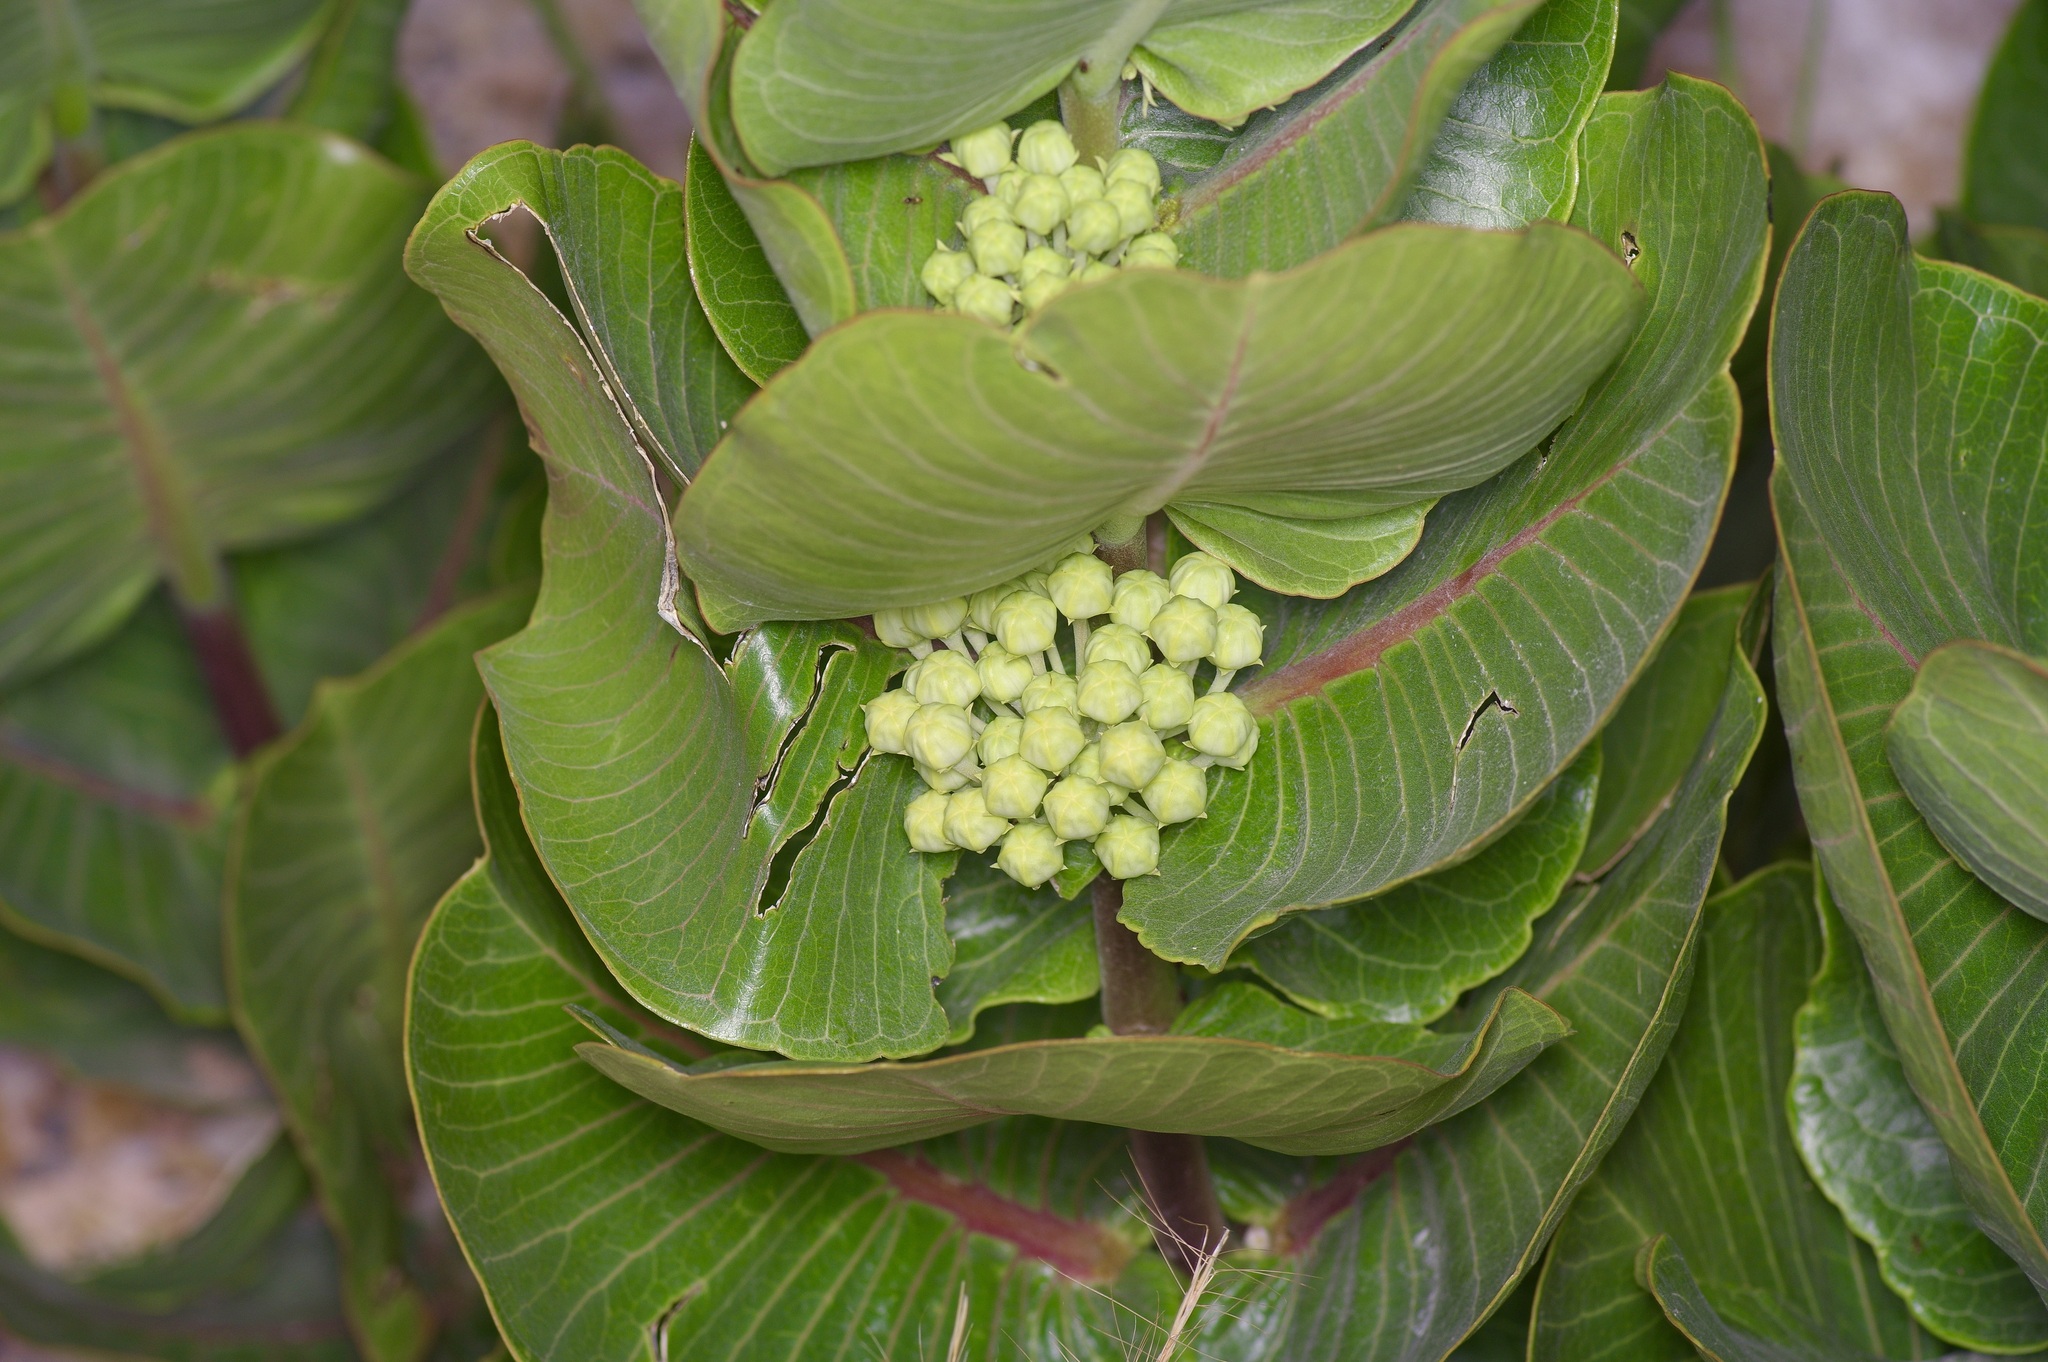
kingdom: Plantae
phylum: Tracheophyta
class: Magnoliopsida
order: Gentianales
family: Apocynaceae
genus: Asclepias
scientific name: Asclepias latifolia
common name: Broadleaf milkweed
